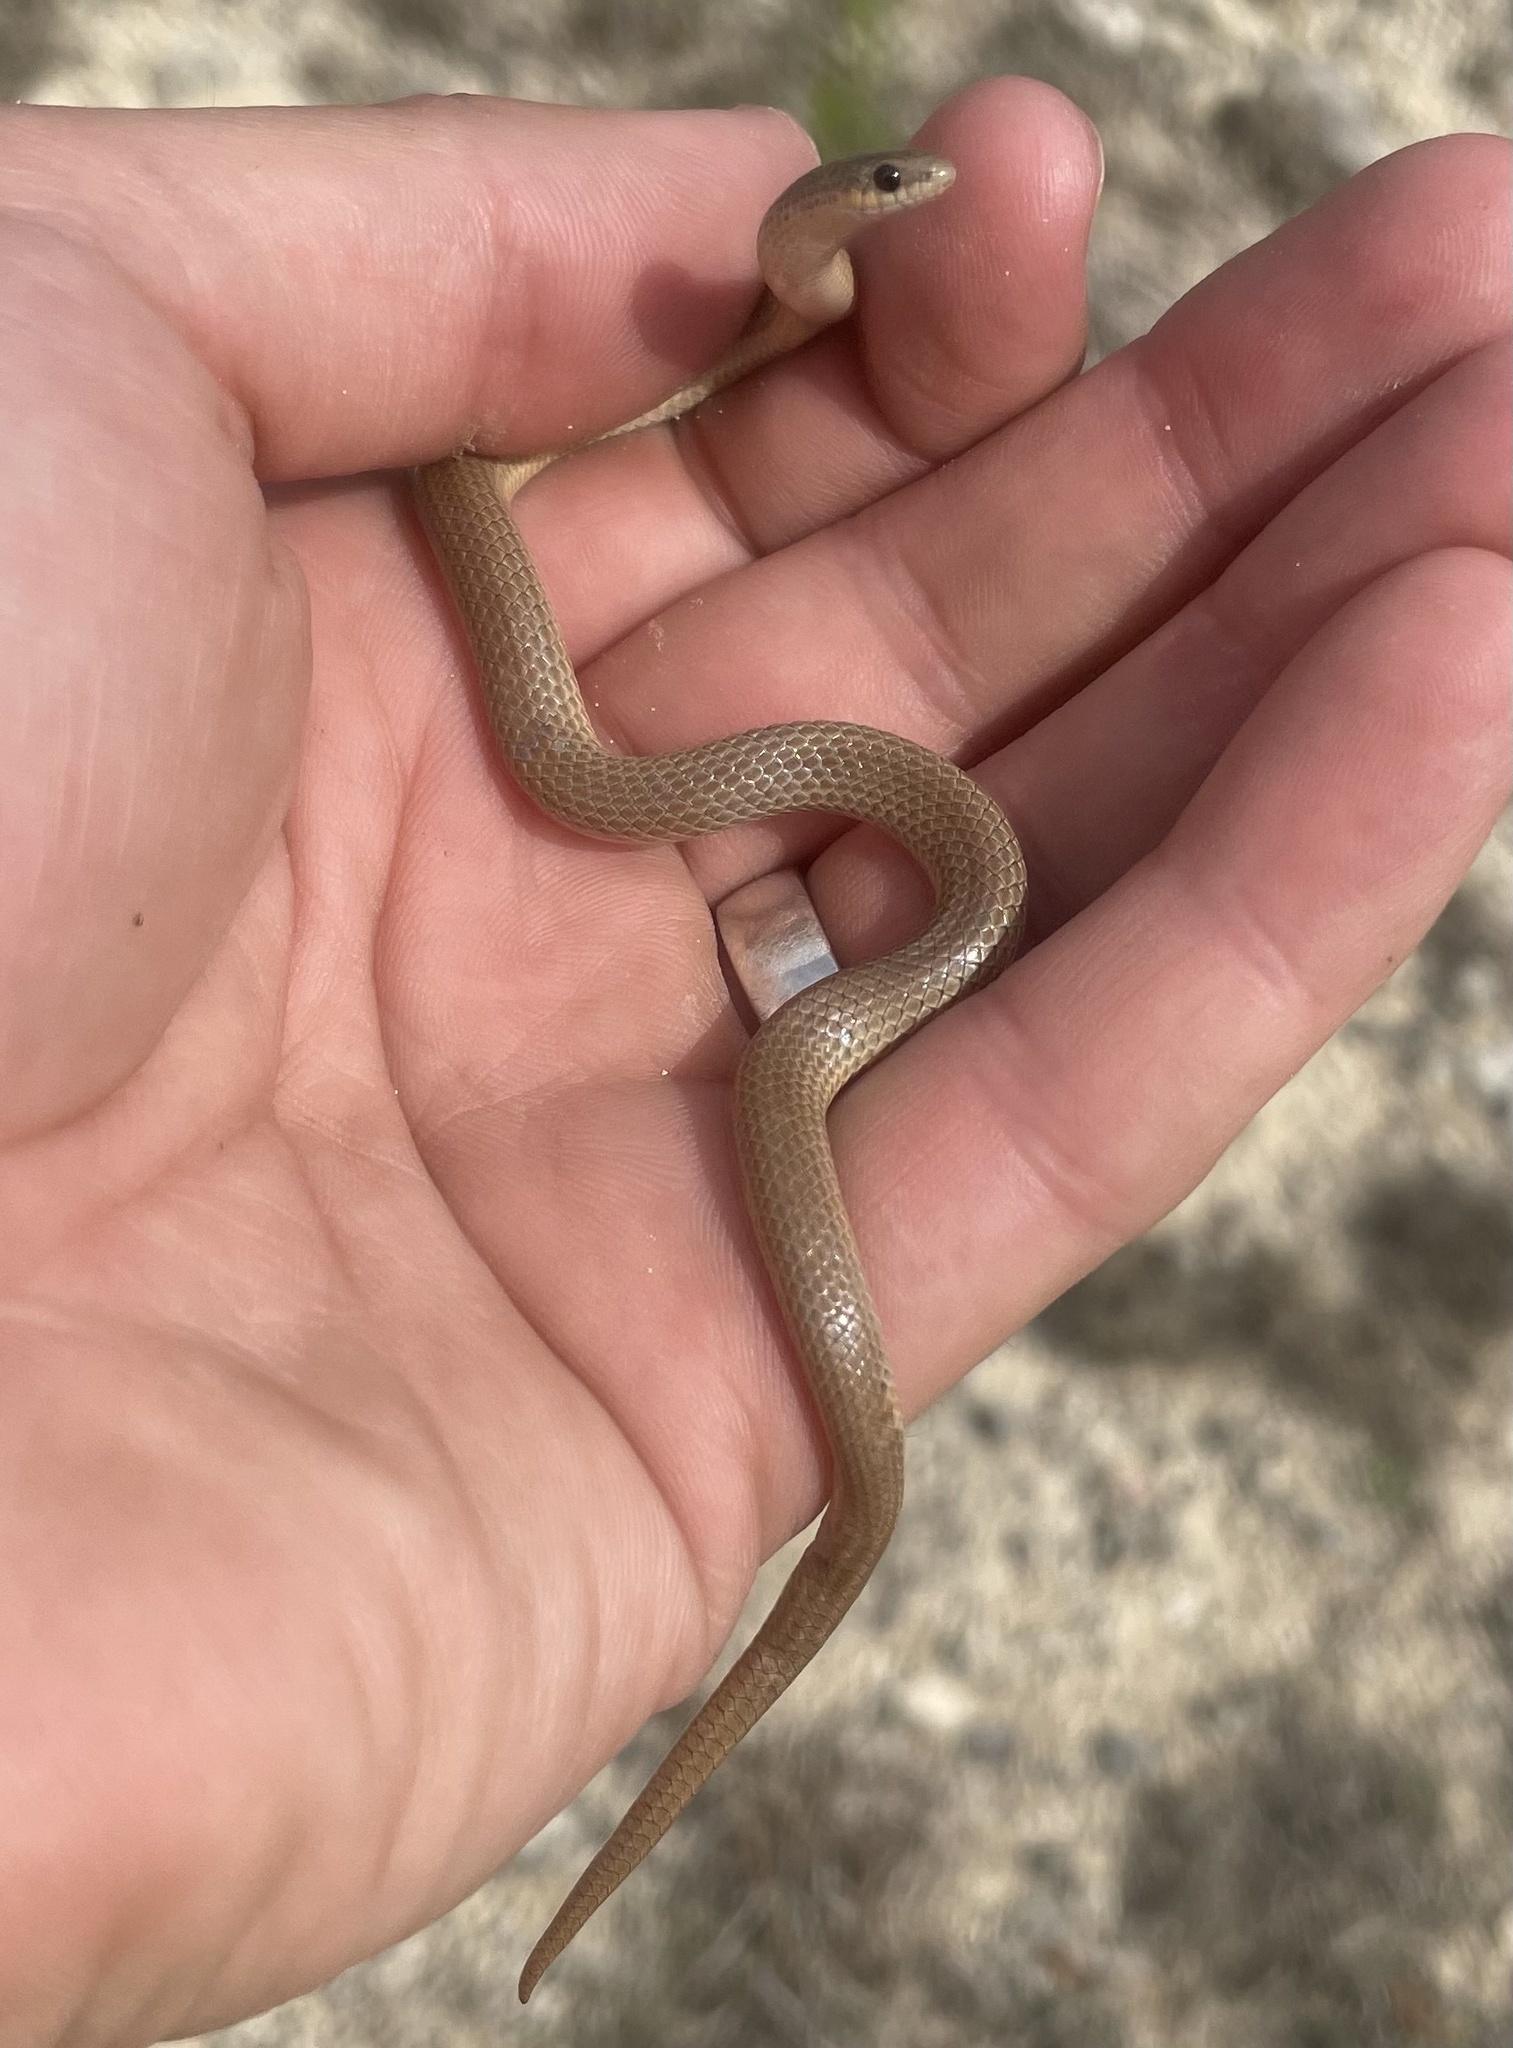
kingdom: Animalia
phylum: Chordata
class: Squamata
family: Colubridae
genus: Sonora
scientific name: Sonora episcopa
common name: Ground snake
